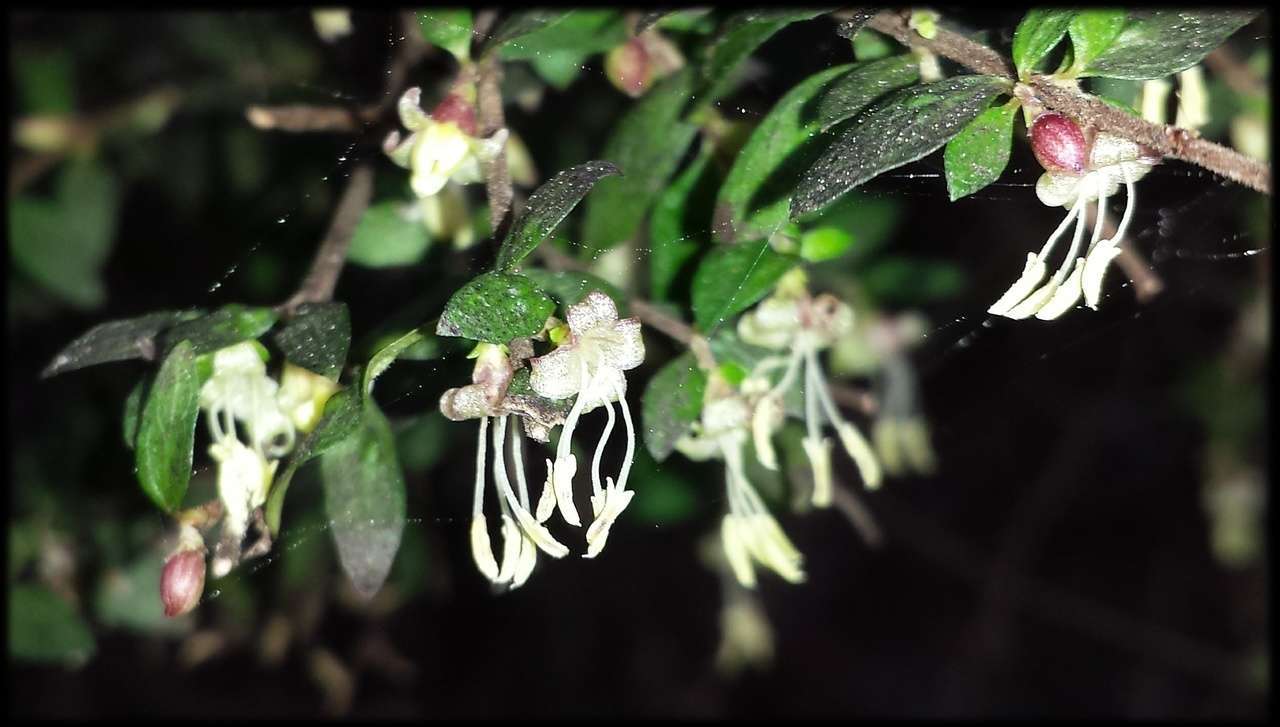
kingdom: Plantae
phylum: Tracheophyta
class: Magnoliopsida
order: Gentianales
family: Rubiaceae
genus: Coprosma
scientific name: Coprosma quadrifida
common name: Prickly currantbush
